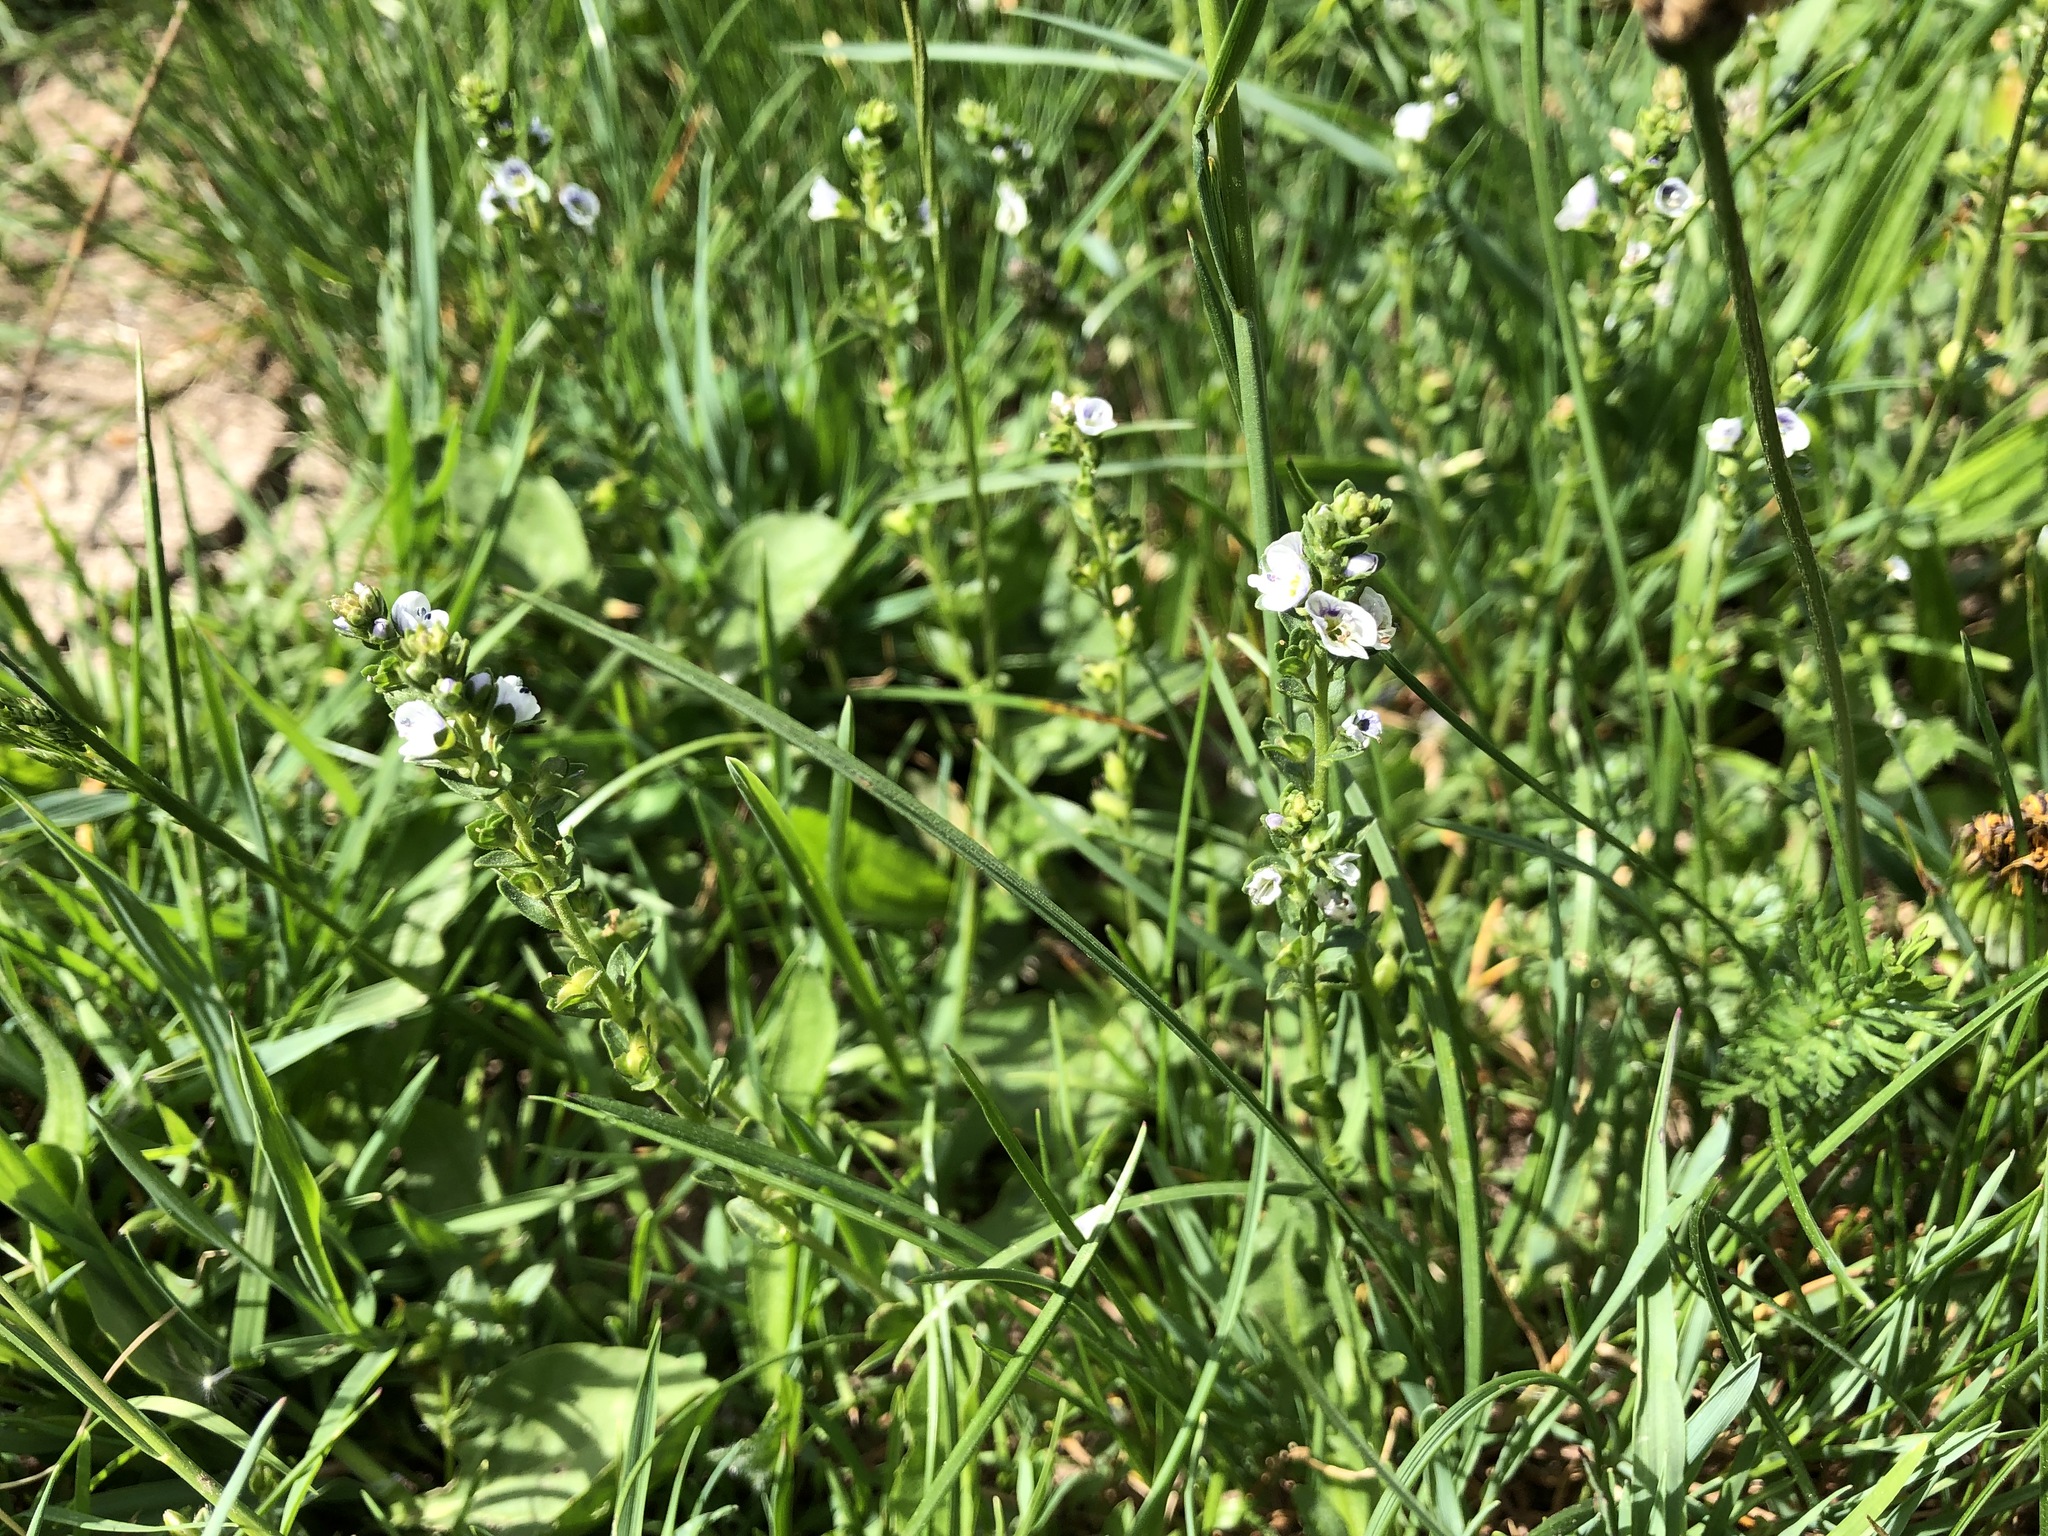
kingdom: Plantae
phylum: Tracheophyta
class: Magnoliopsida
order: Lamiales
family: Plantaginaceae
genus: Veronica
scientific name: Veronica serpyllifolia
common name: Thyme-leaved speedwell
